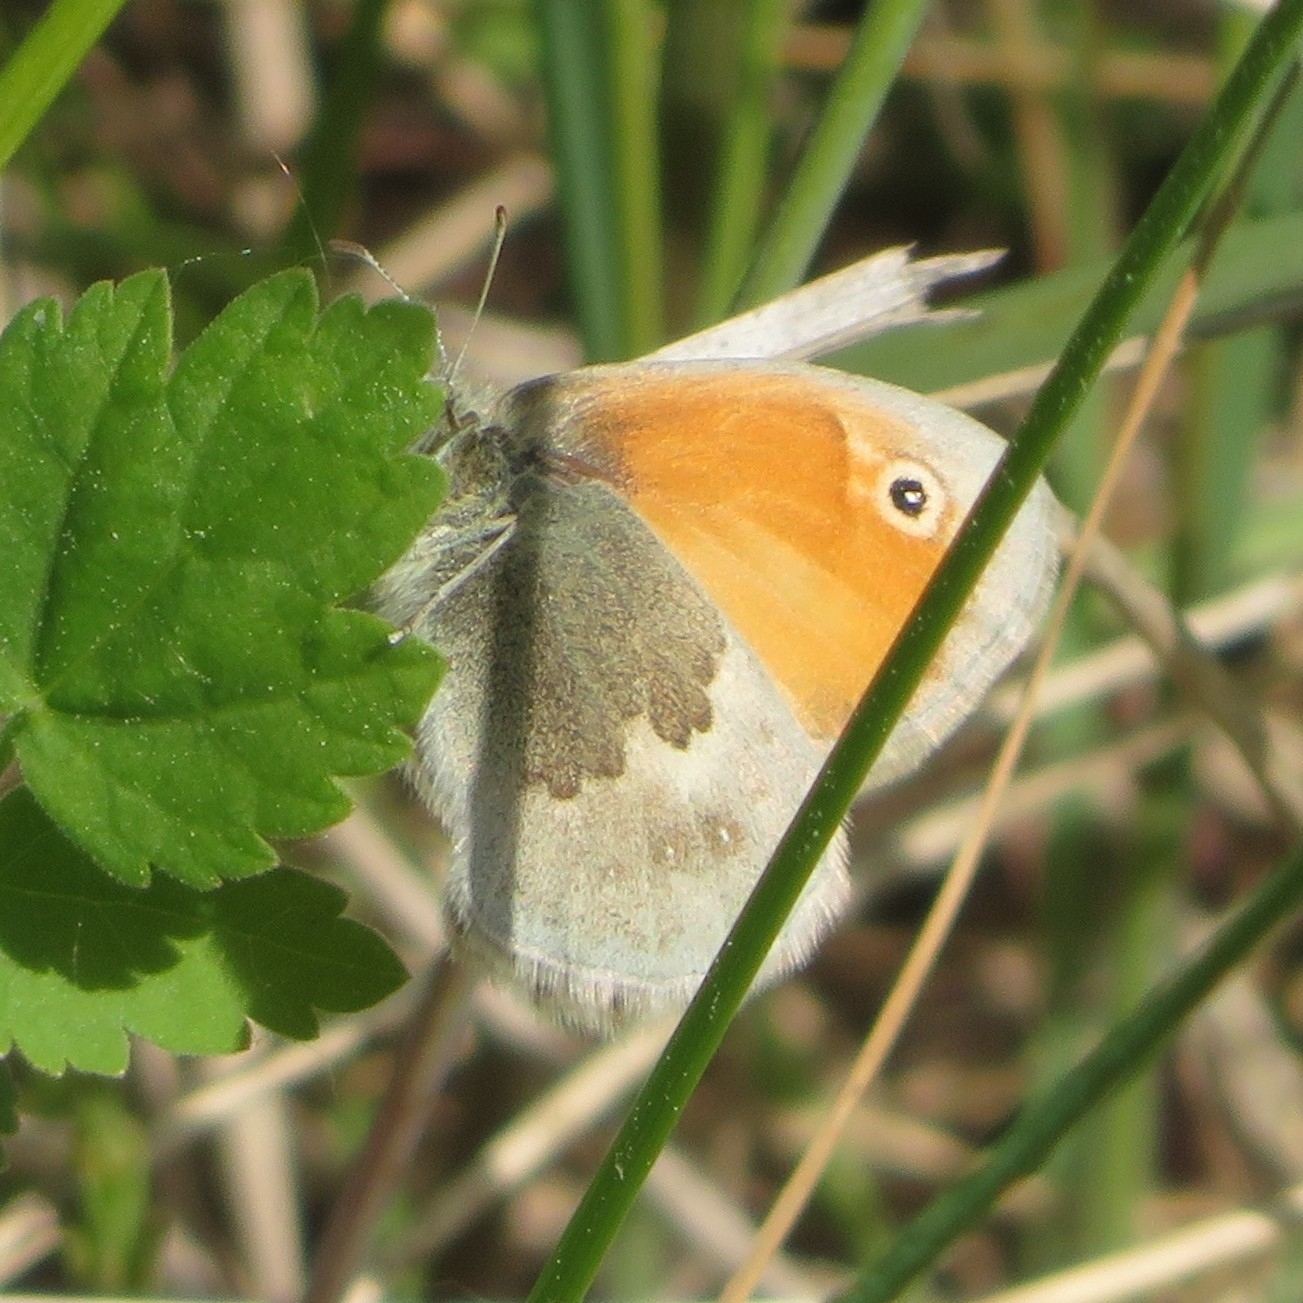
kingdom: Animalia
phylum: Arthropoda
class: Insecta
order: Lepidoptera
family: Nymphalidae
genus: Coenonympha
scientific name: Coenonympha pamphilus
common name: Small heath
